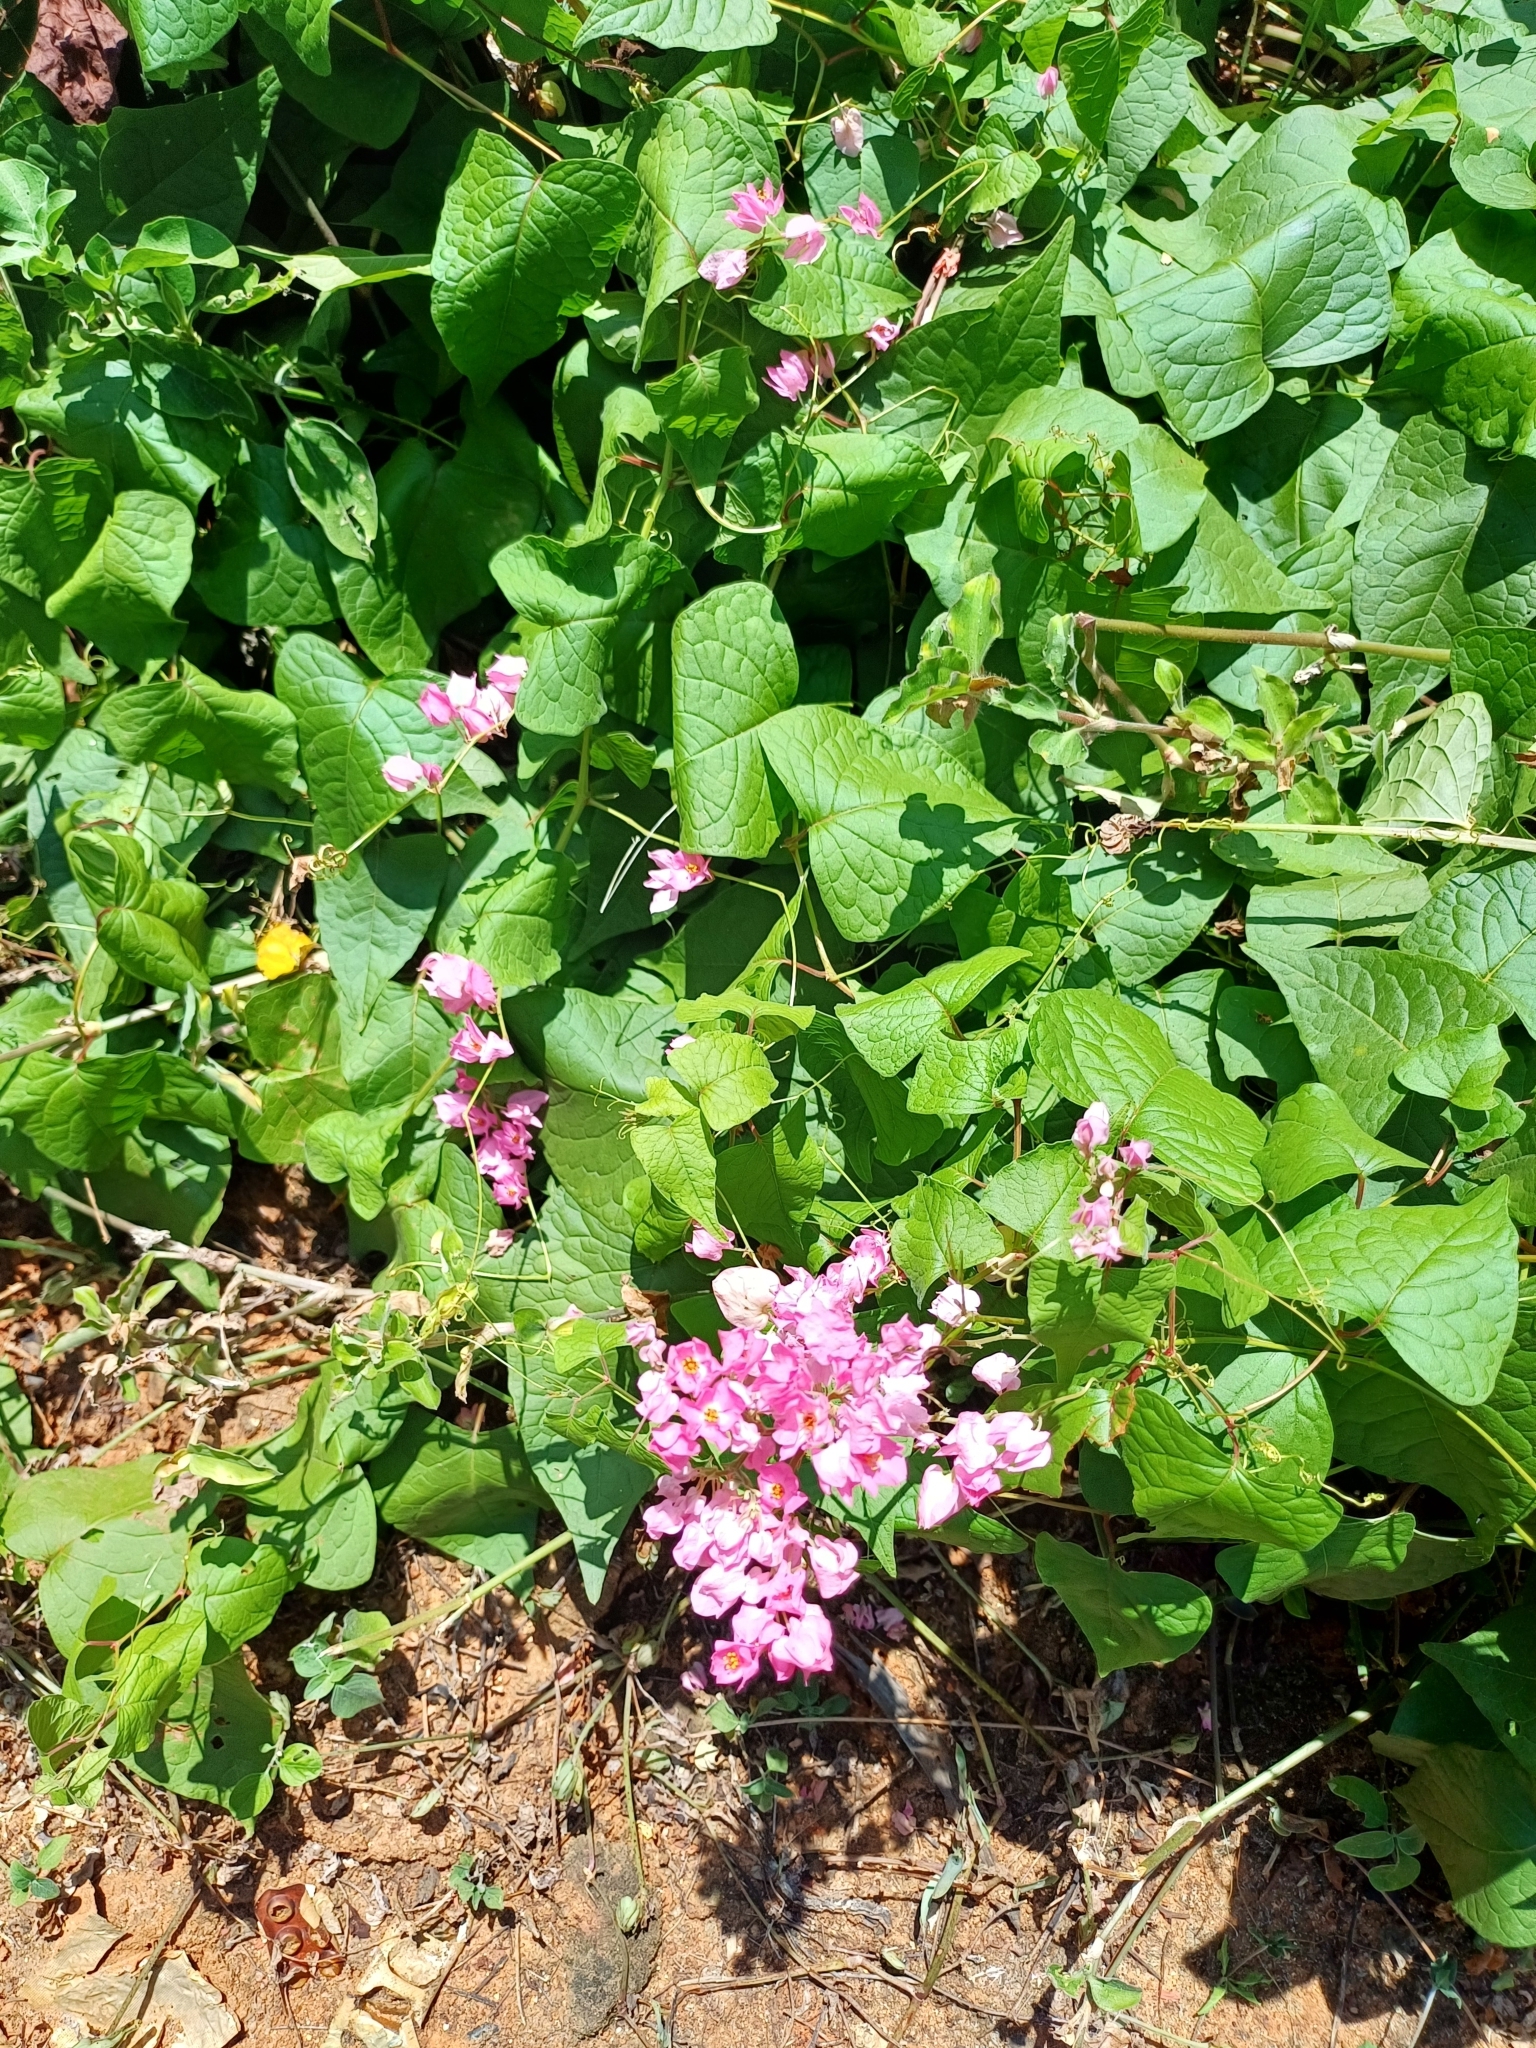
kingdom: Plantae
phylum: Tracheophyta
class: Magnoliopsida
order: Caryophyllales
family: Polygonaceae
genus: Antigonon
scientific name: Antigonon leptopus
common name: Coral vine
